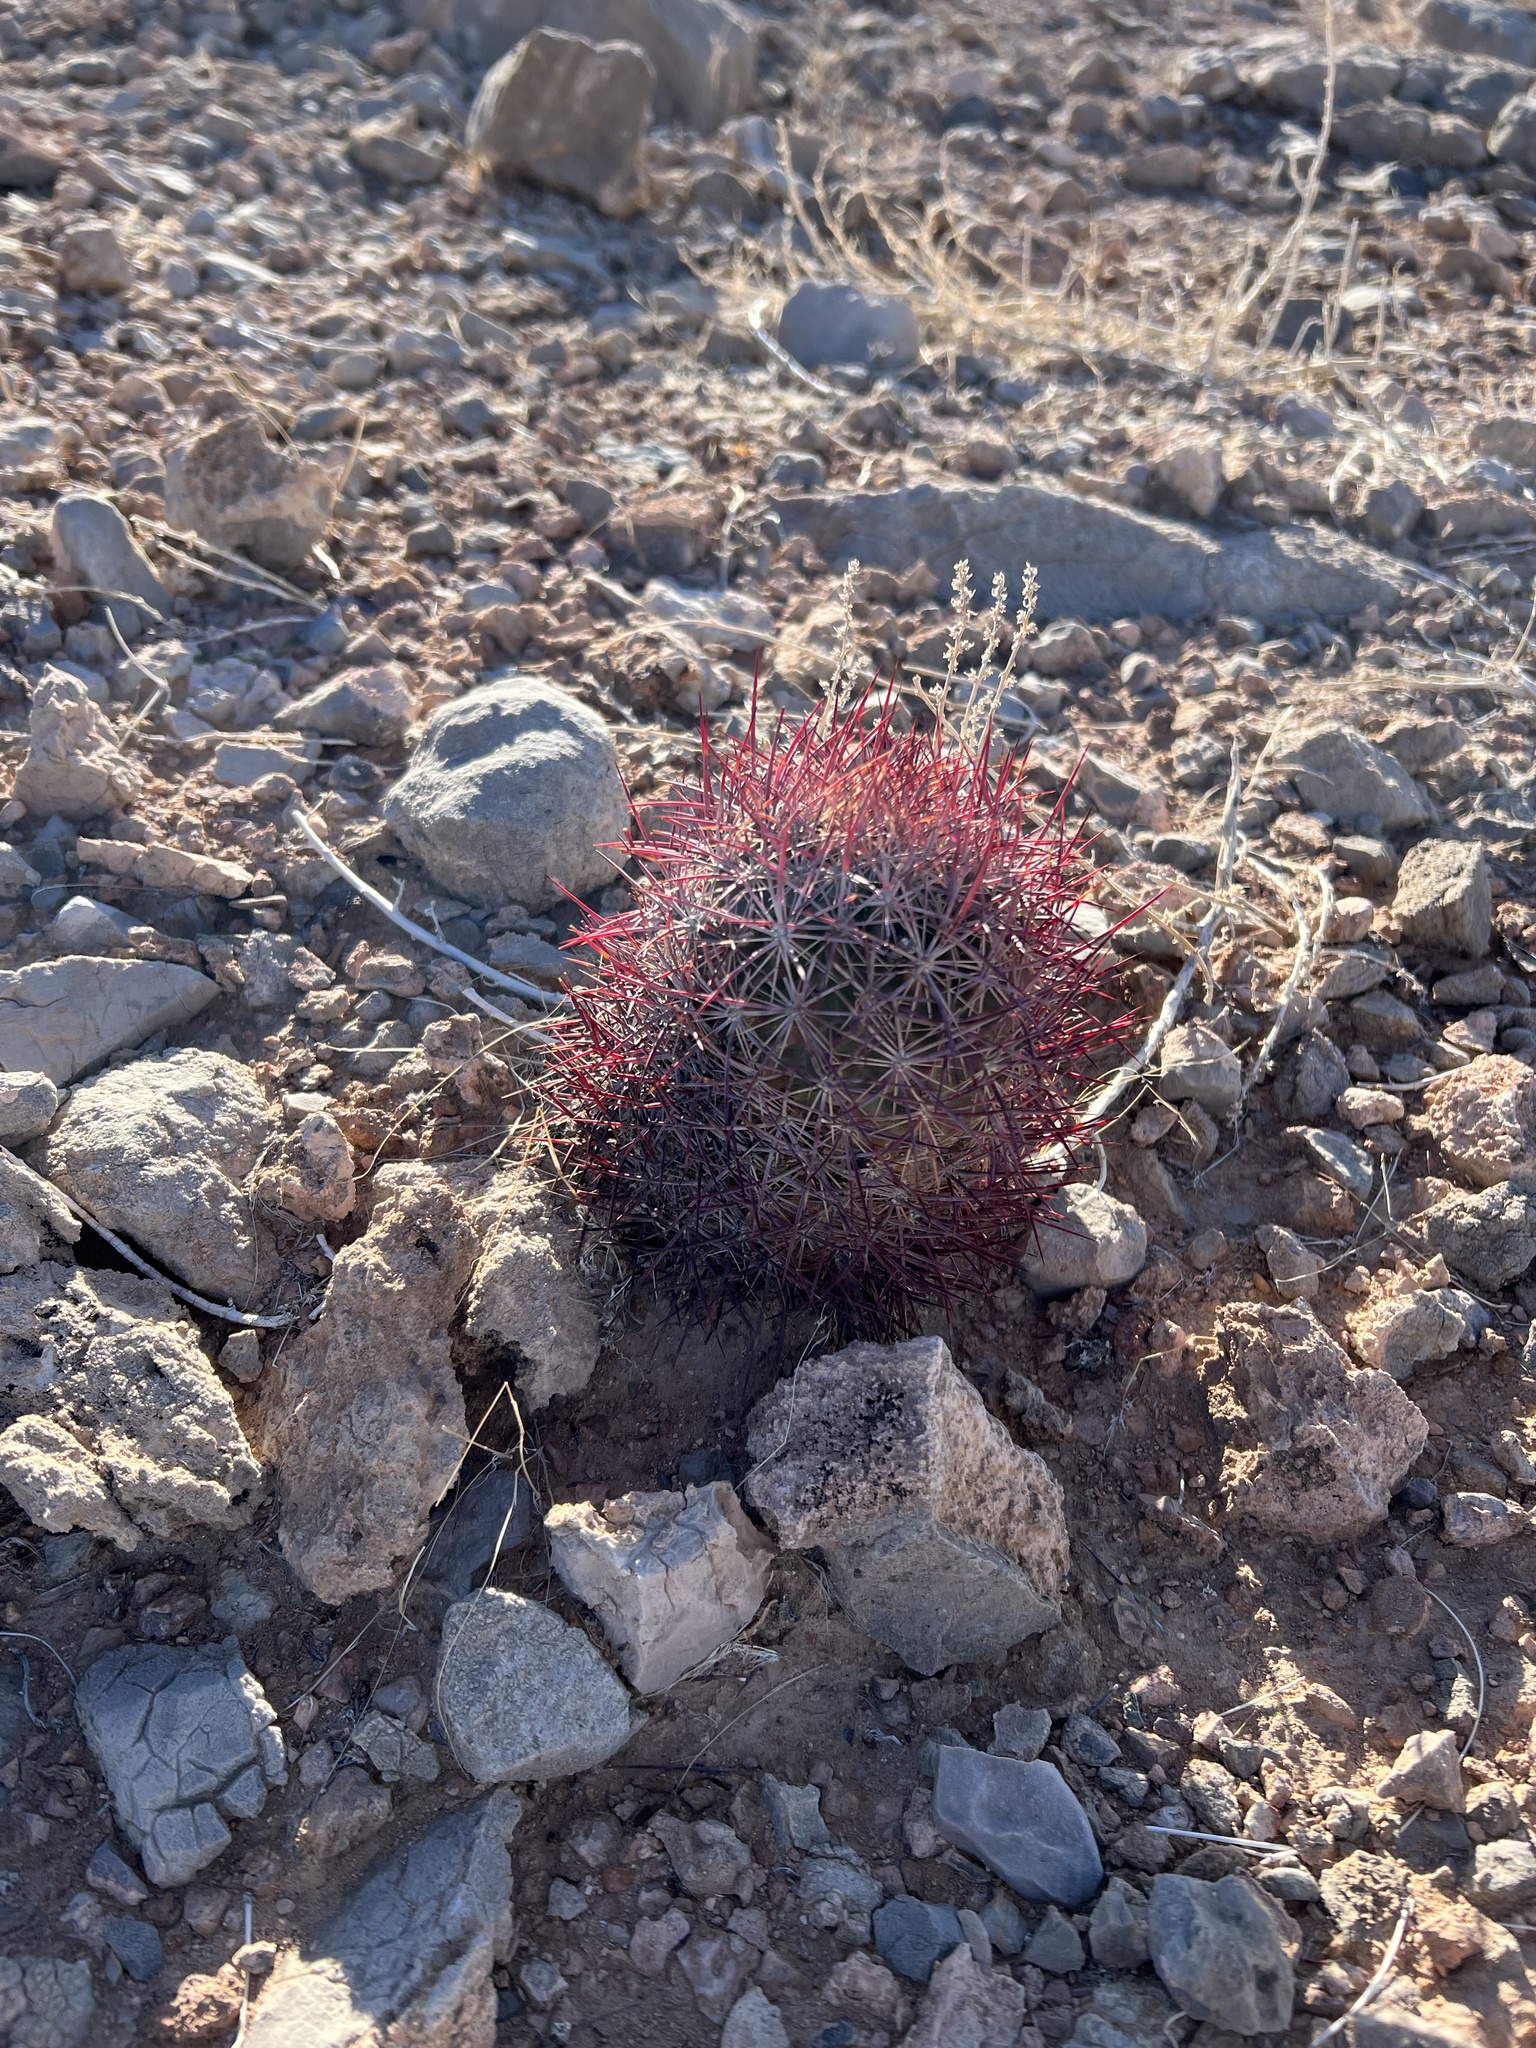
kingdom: Plantae
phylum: Tracheophyta
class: Magnoliopsida
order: Caryophyllales
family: Cactaceae
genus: Sclerocactus
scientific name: Sclerocactus johnsonii
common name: Eight-spine fishhook cactus
